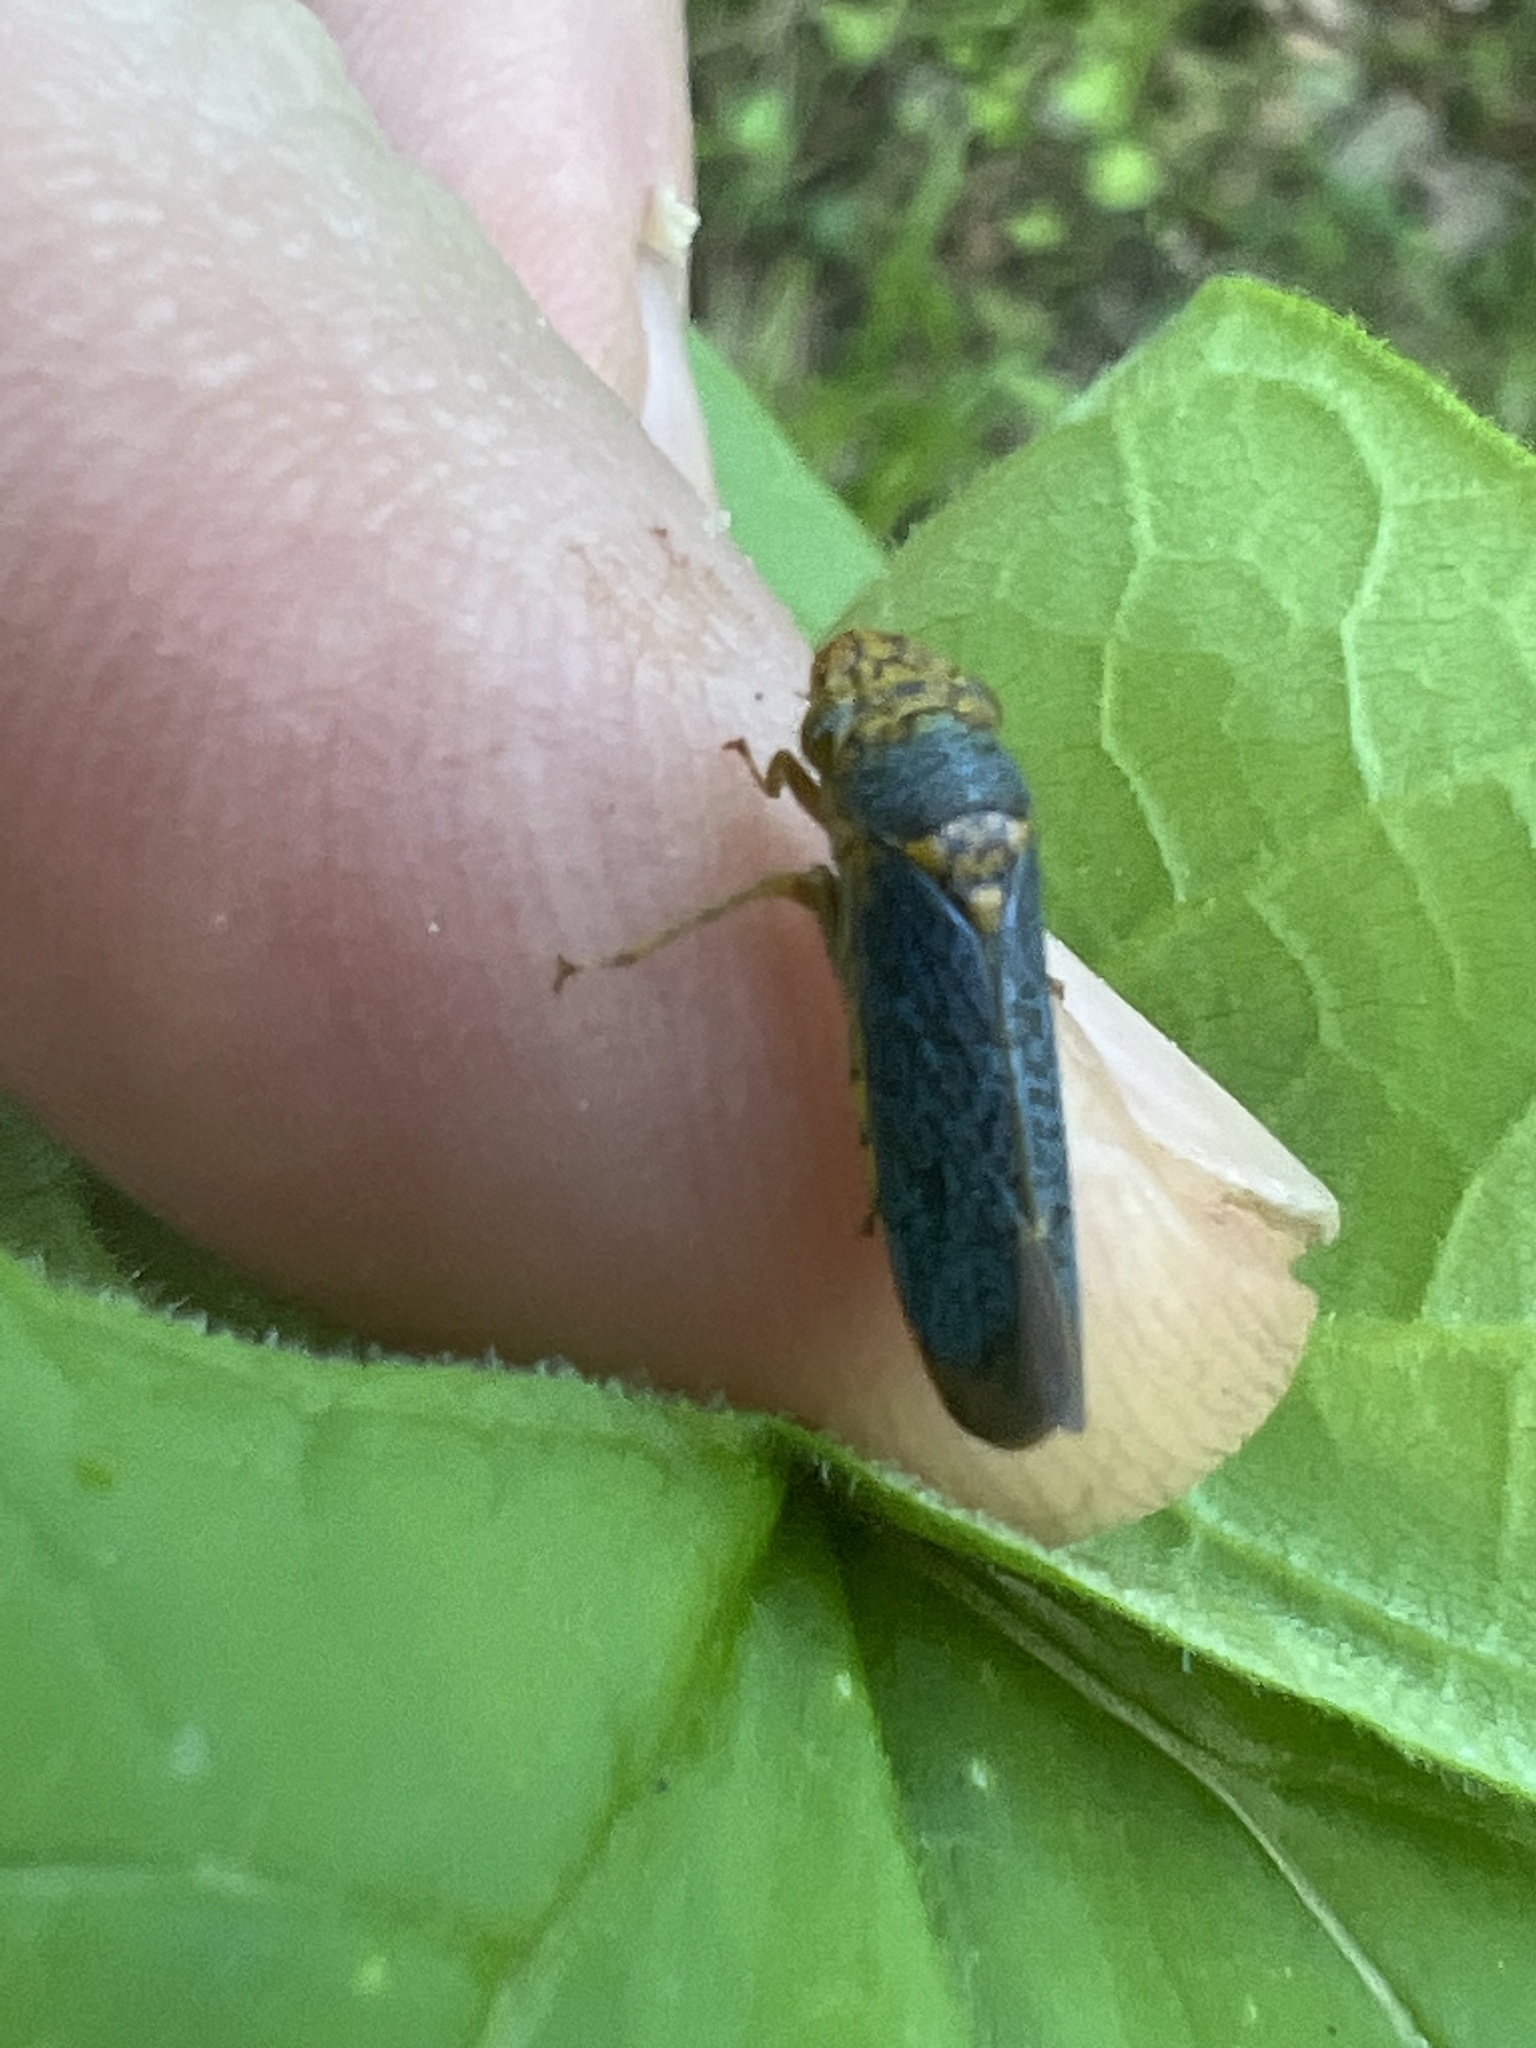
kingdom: Animalia
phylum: Arthropoda
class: Insecta
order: Hemiptera
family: Cicadellidae
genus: Oncometopia
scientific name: Oncometopia orbona
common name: Broad-headed sharpshooter
